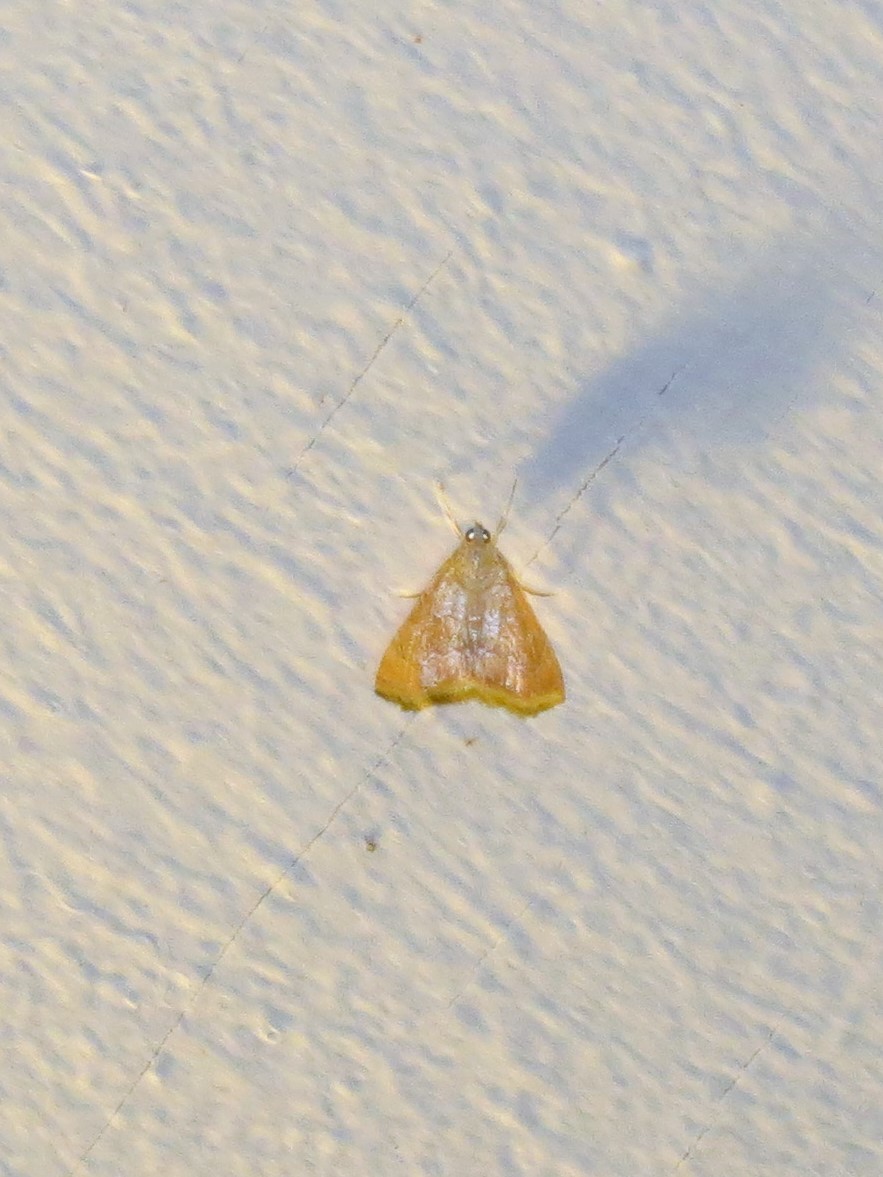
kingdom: Animalia
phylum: Arthropoda
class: Insecta
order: Lepidoptera
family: Crambidae
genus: Glaphyria
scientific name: Glaphyria sesquistrialis
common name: White-roped glaphyria
